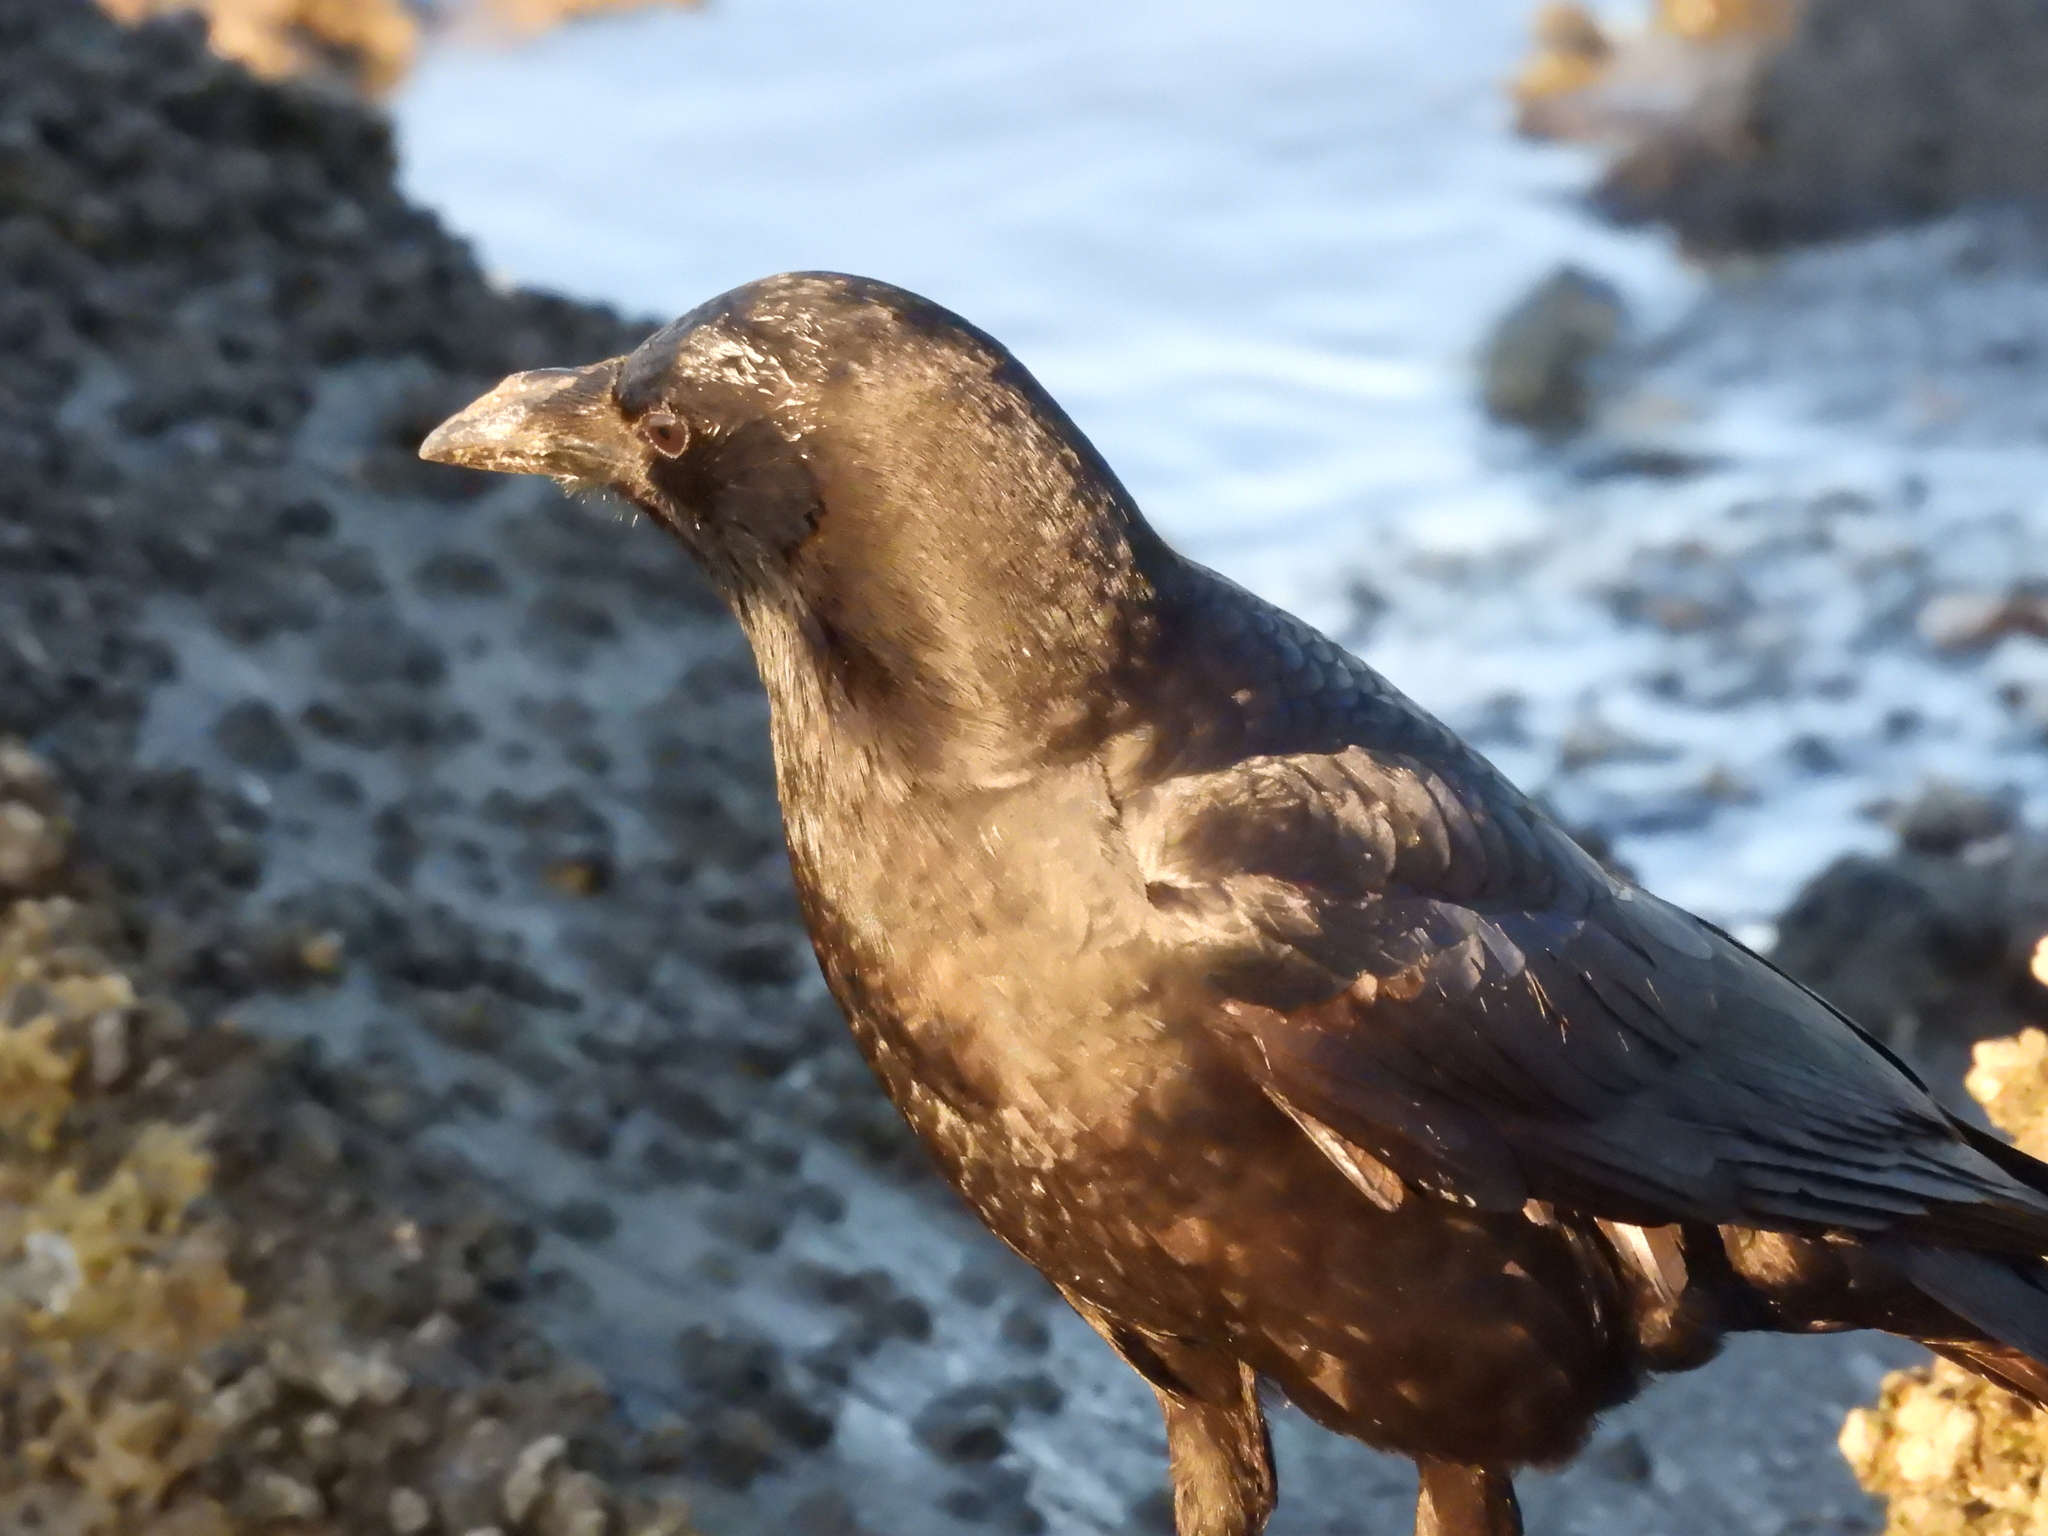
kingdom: Animalia
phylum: Chordata
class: Aves
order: Passeriformes
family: Corvidae
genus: Corvus
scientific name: Corvus brachyrhynchos
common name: American crow
